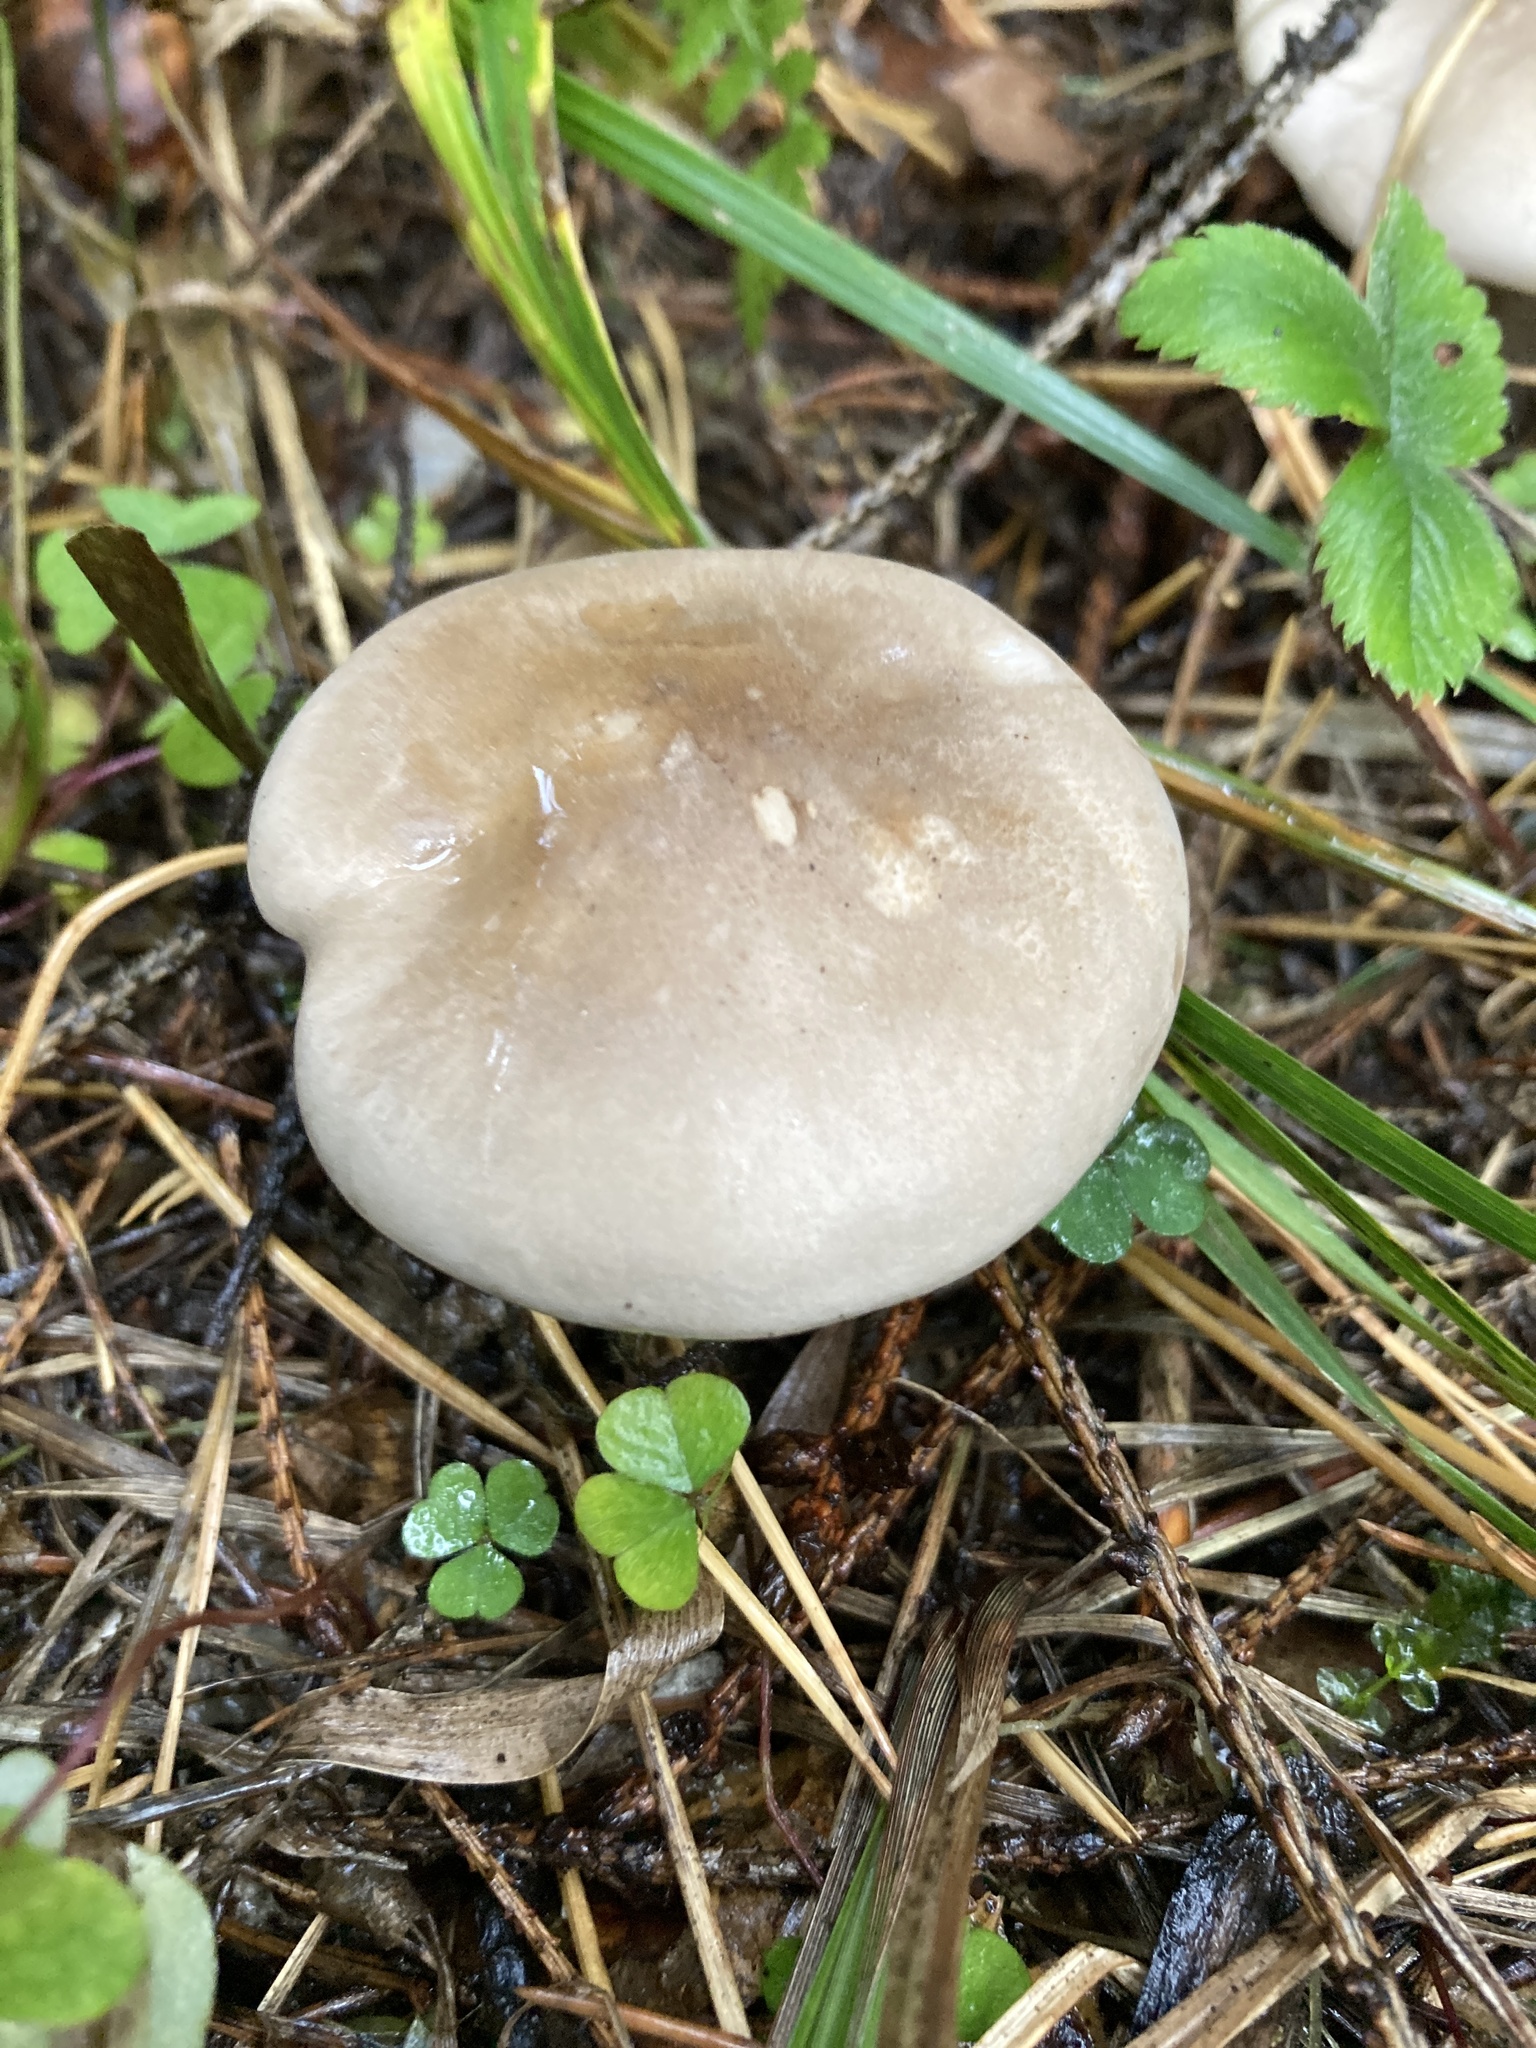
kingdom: Fungi
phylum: Basidiomycota
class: Agaricomycetes
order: Agaricales
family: Tricholomataceae
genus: Clitocybe
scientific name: Clitocybe nebularis
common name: Clouded agaric
